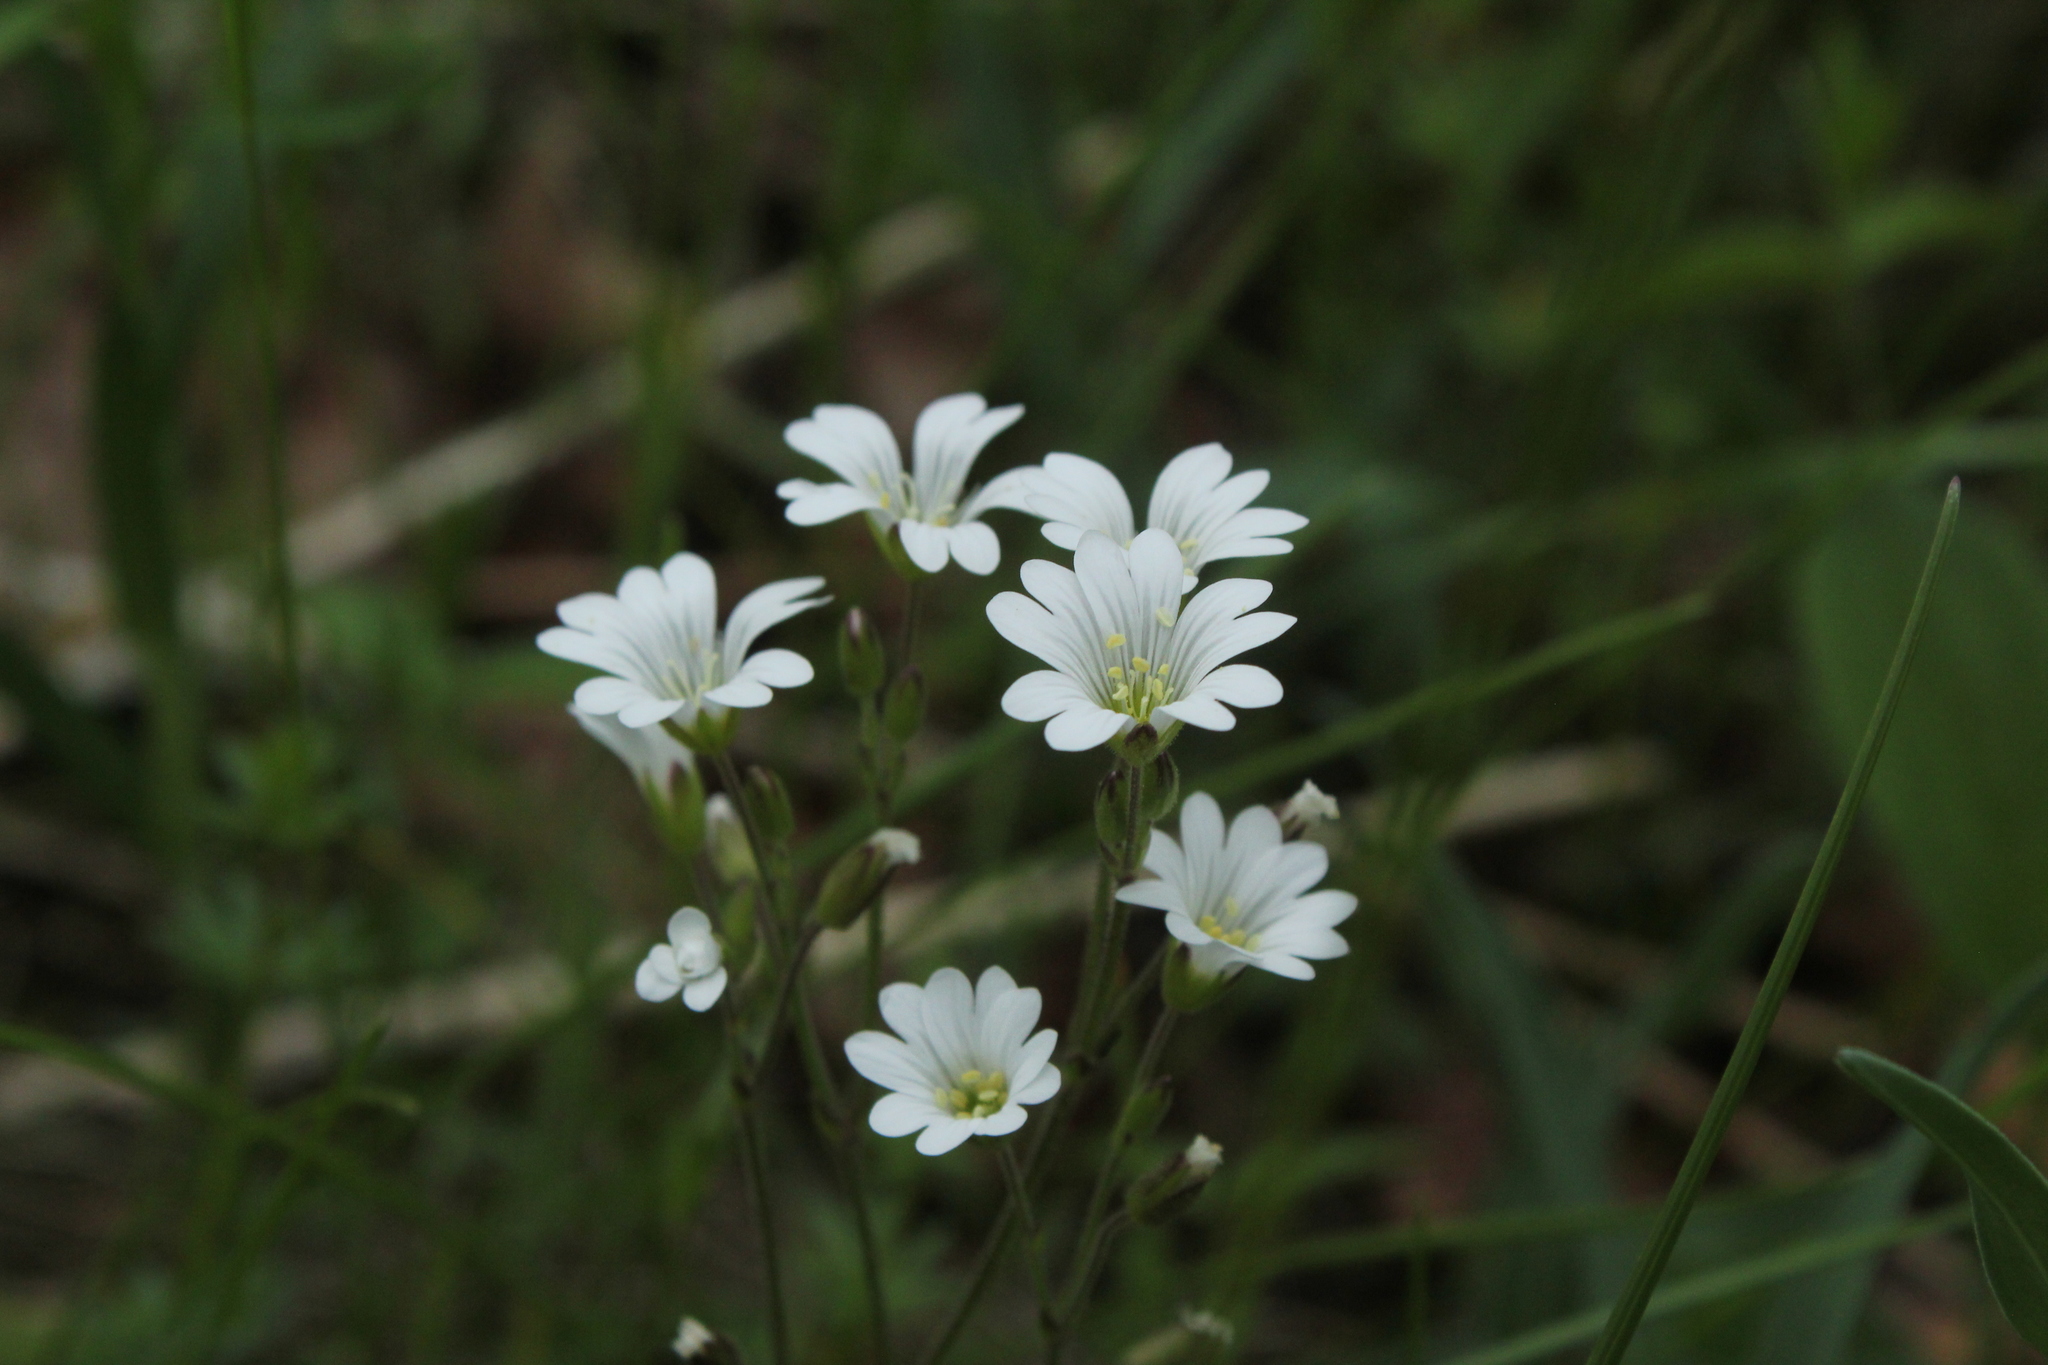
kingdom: Plantae
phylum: Tracheophyta
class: Magnoliopsida
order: Caryophyllales
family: Caryophyllaceae
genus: Cerastium
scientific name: Cerastium arvense
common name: Field mouse-ear
